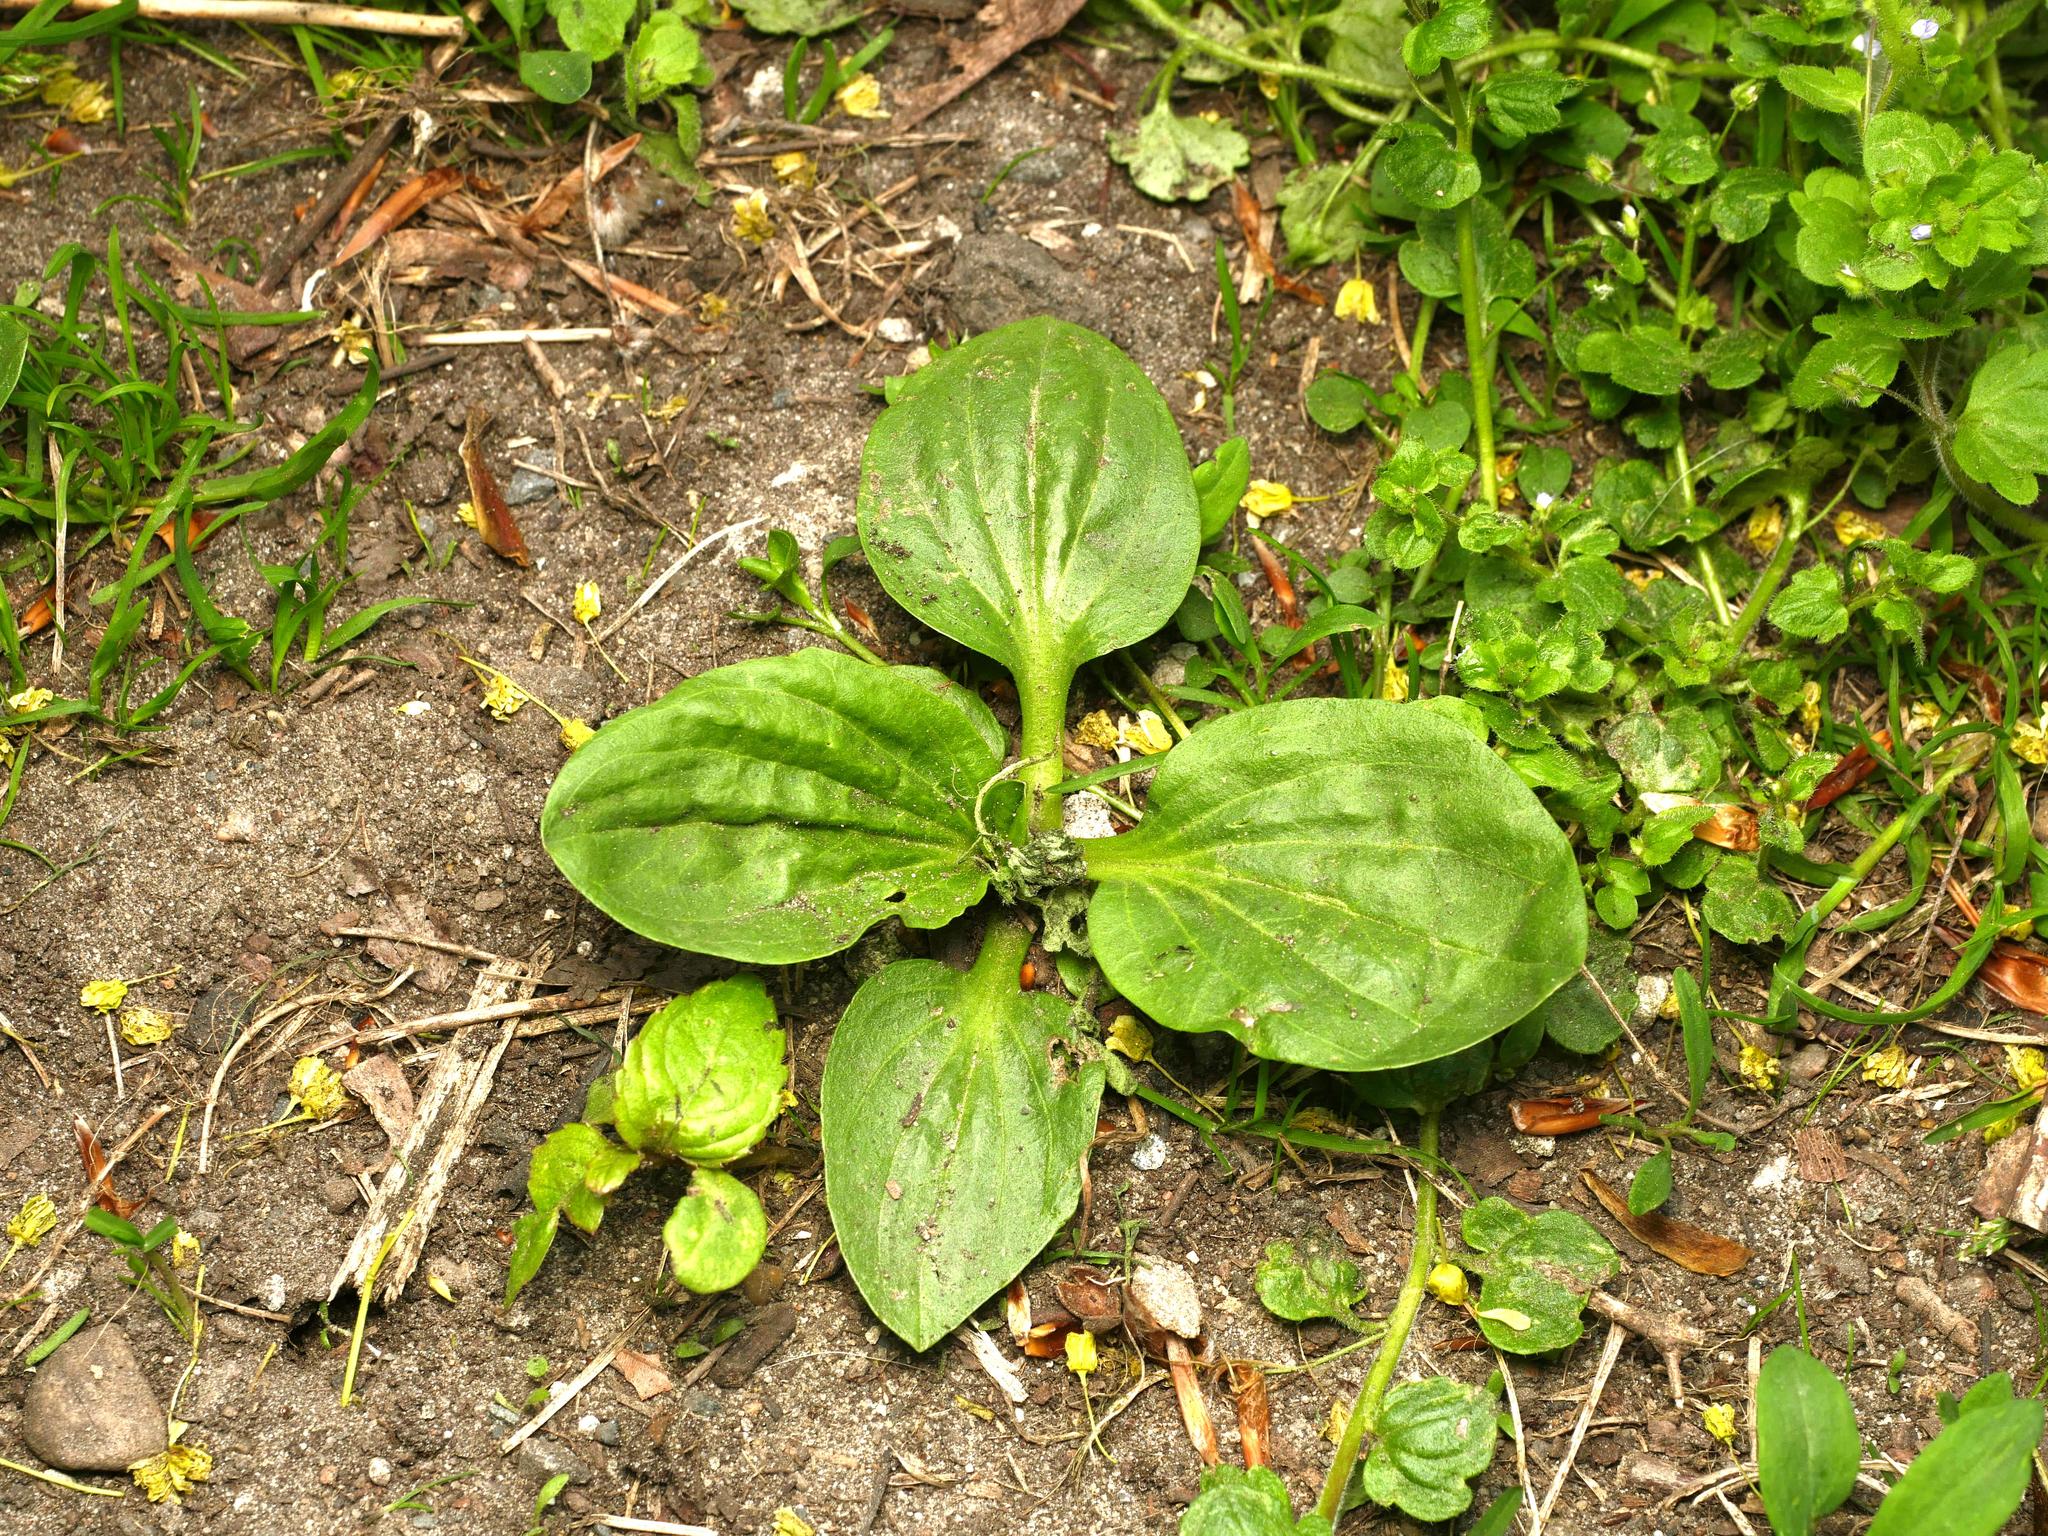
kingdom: Plantae
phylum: Tracheophyta
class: Magnoliopsida
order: Lamiales
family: Plantaginaceae
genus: Plantago
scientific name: Plantago major
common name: Common plantain
